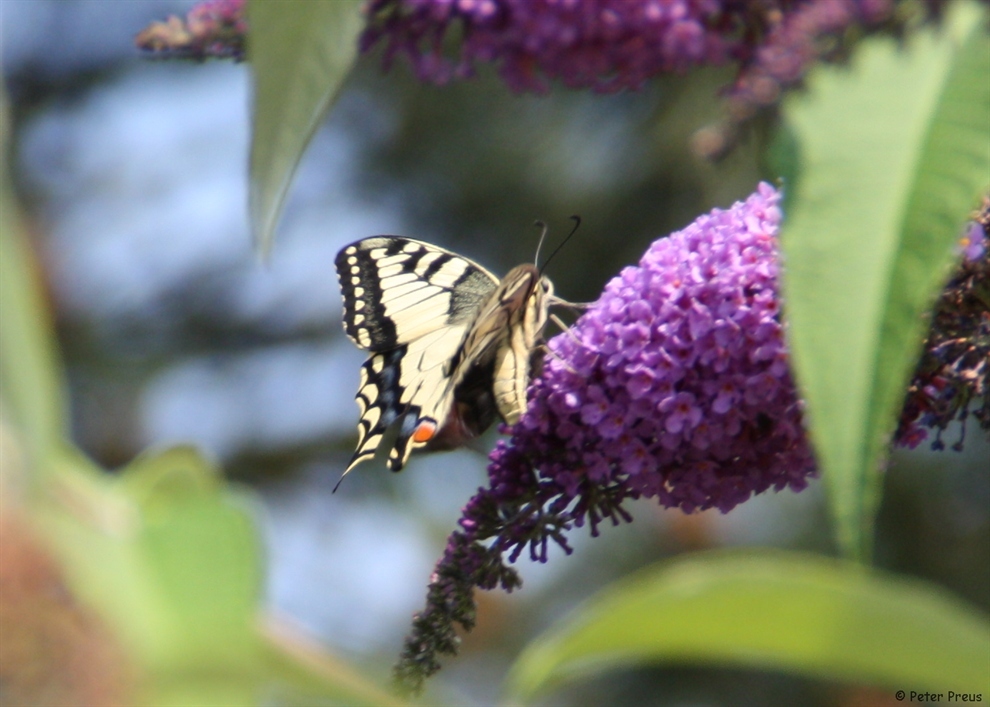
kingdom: Animalia
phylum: Arthropoda
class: Insecta
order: Lepidoptera
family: Papilionidae
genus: Papilio
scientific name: Papilio machaon
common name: Swallowtail
